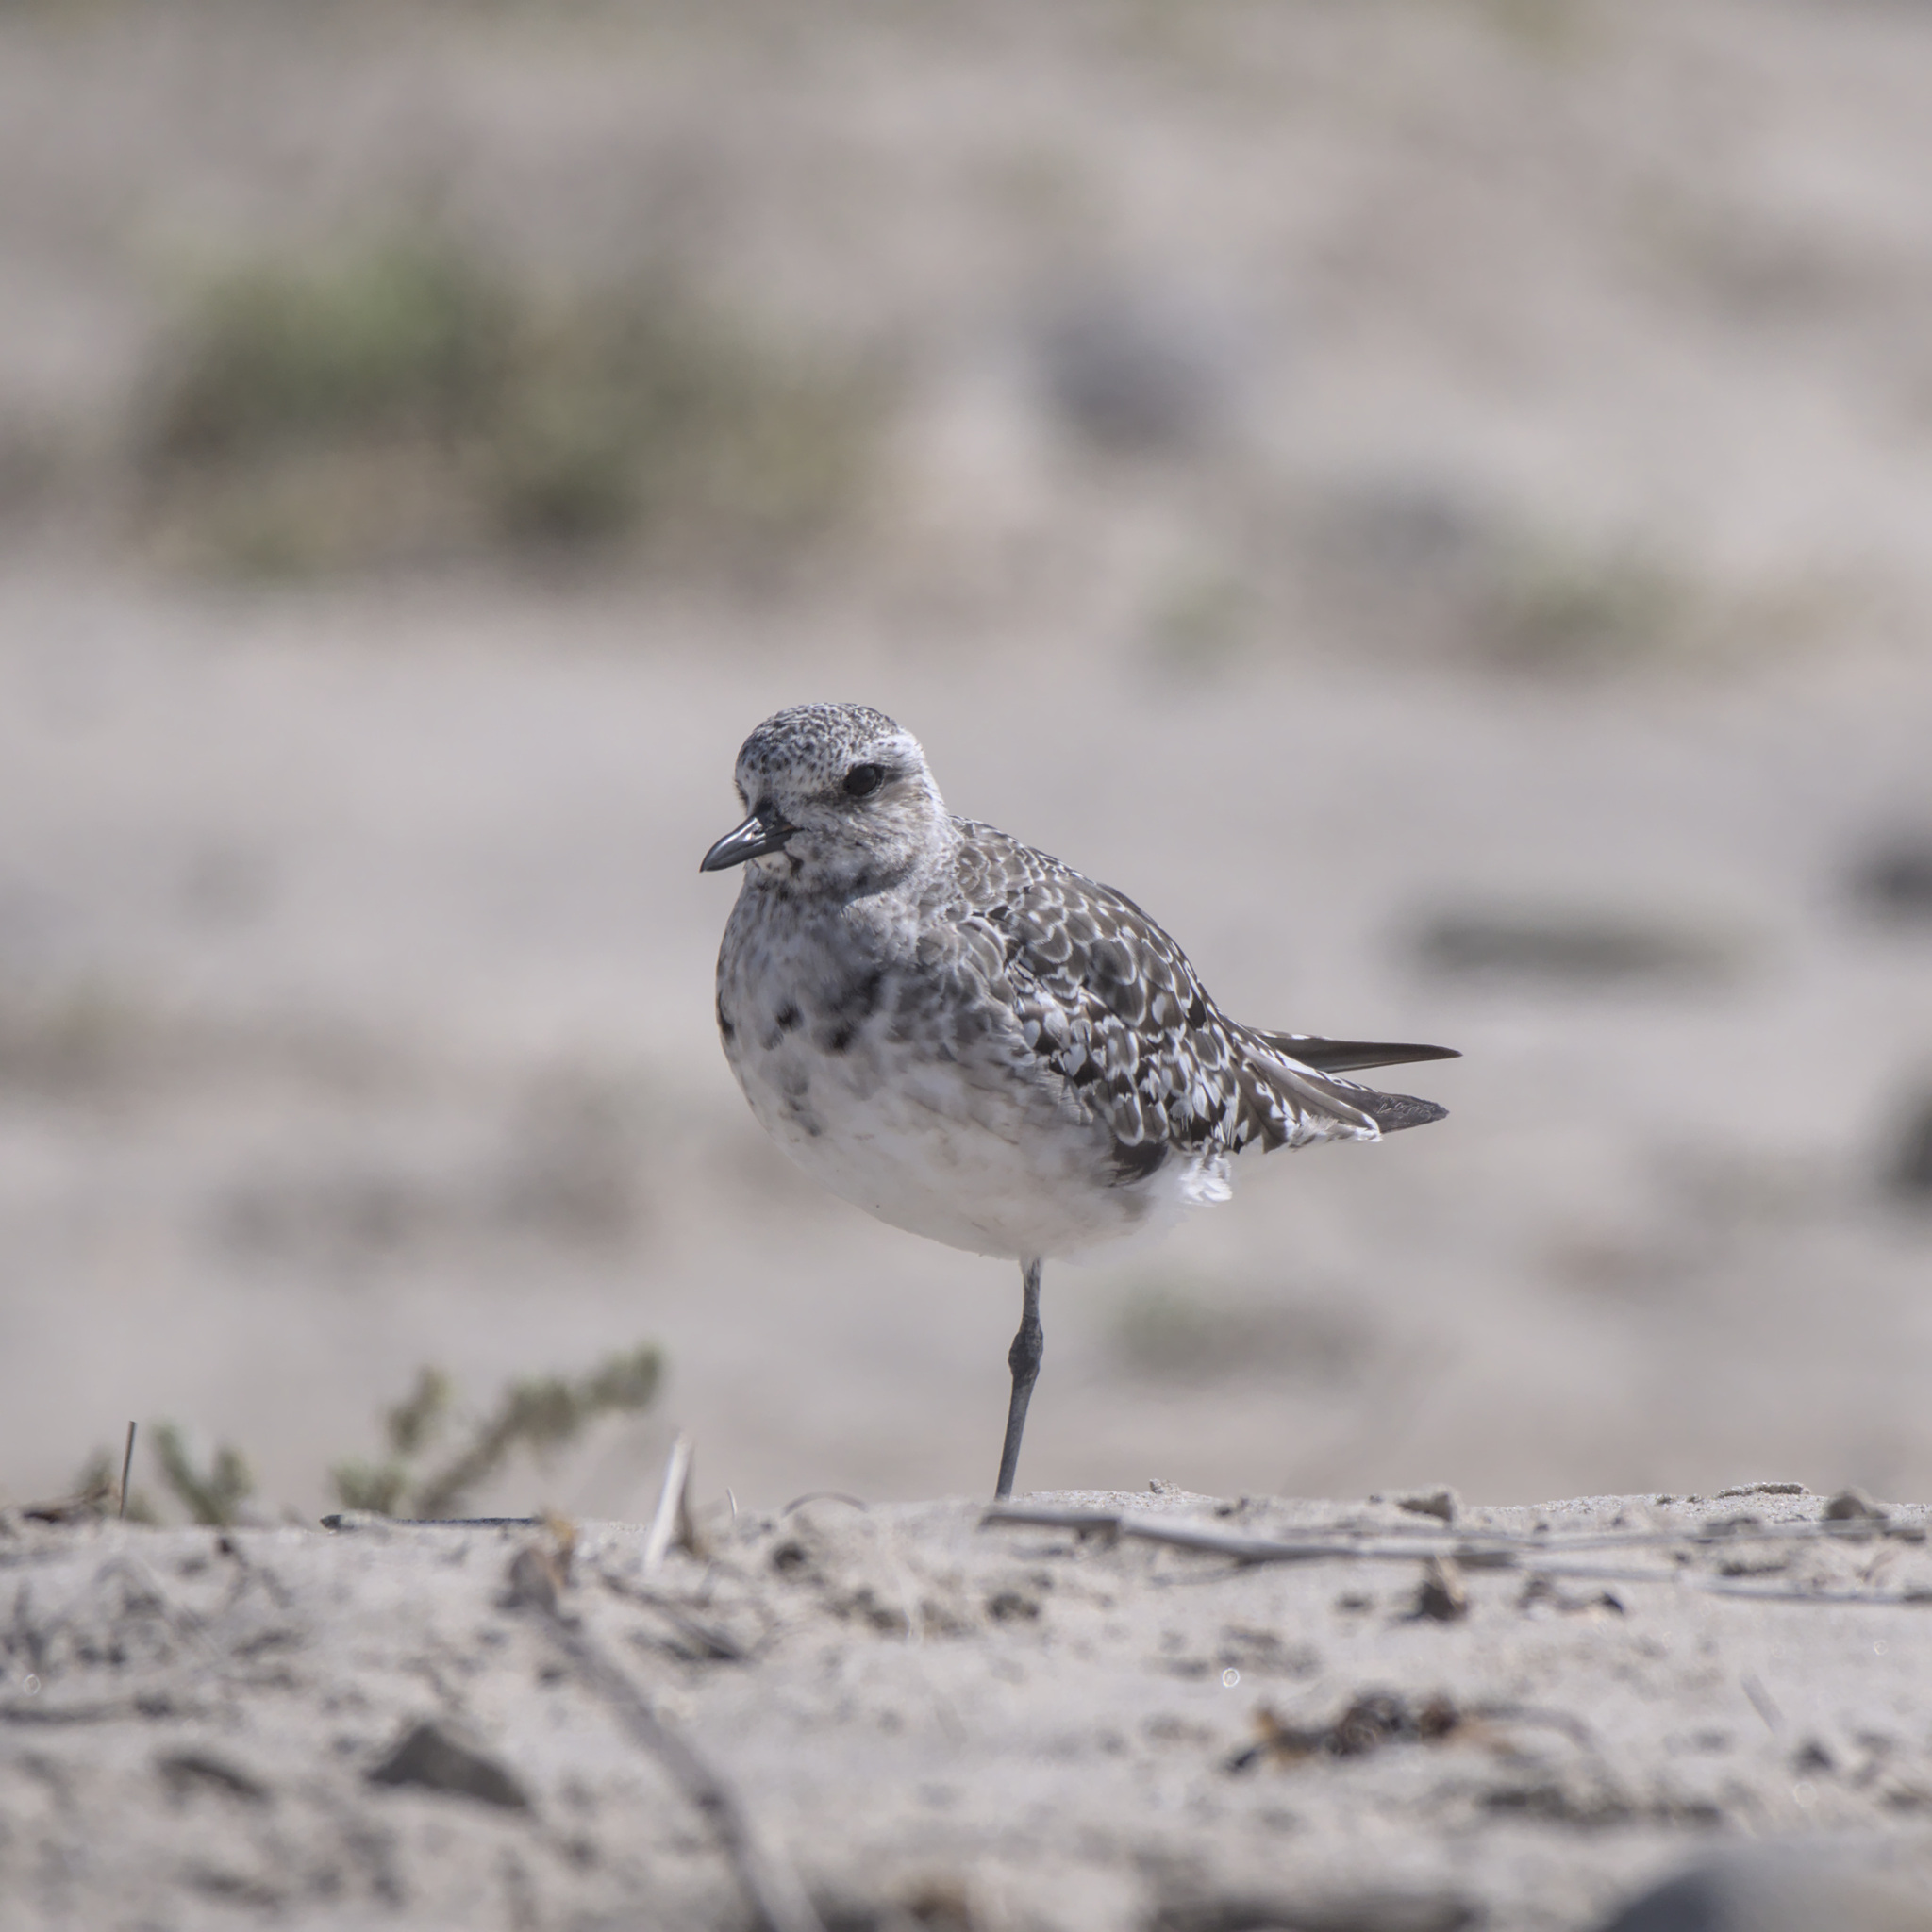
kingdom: Animalia
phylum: Chordata
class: Aves
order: Charadriiformes
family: Charadriidae
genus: Pluvialis
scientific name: Pluvialis squatarola
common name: Grey plover
